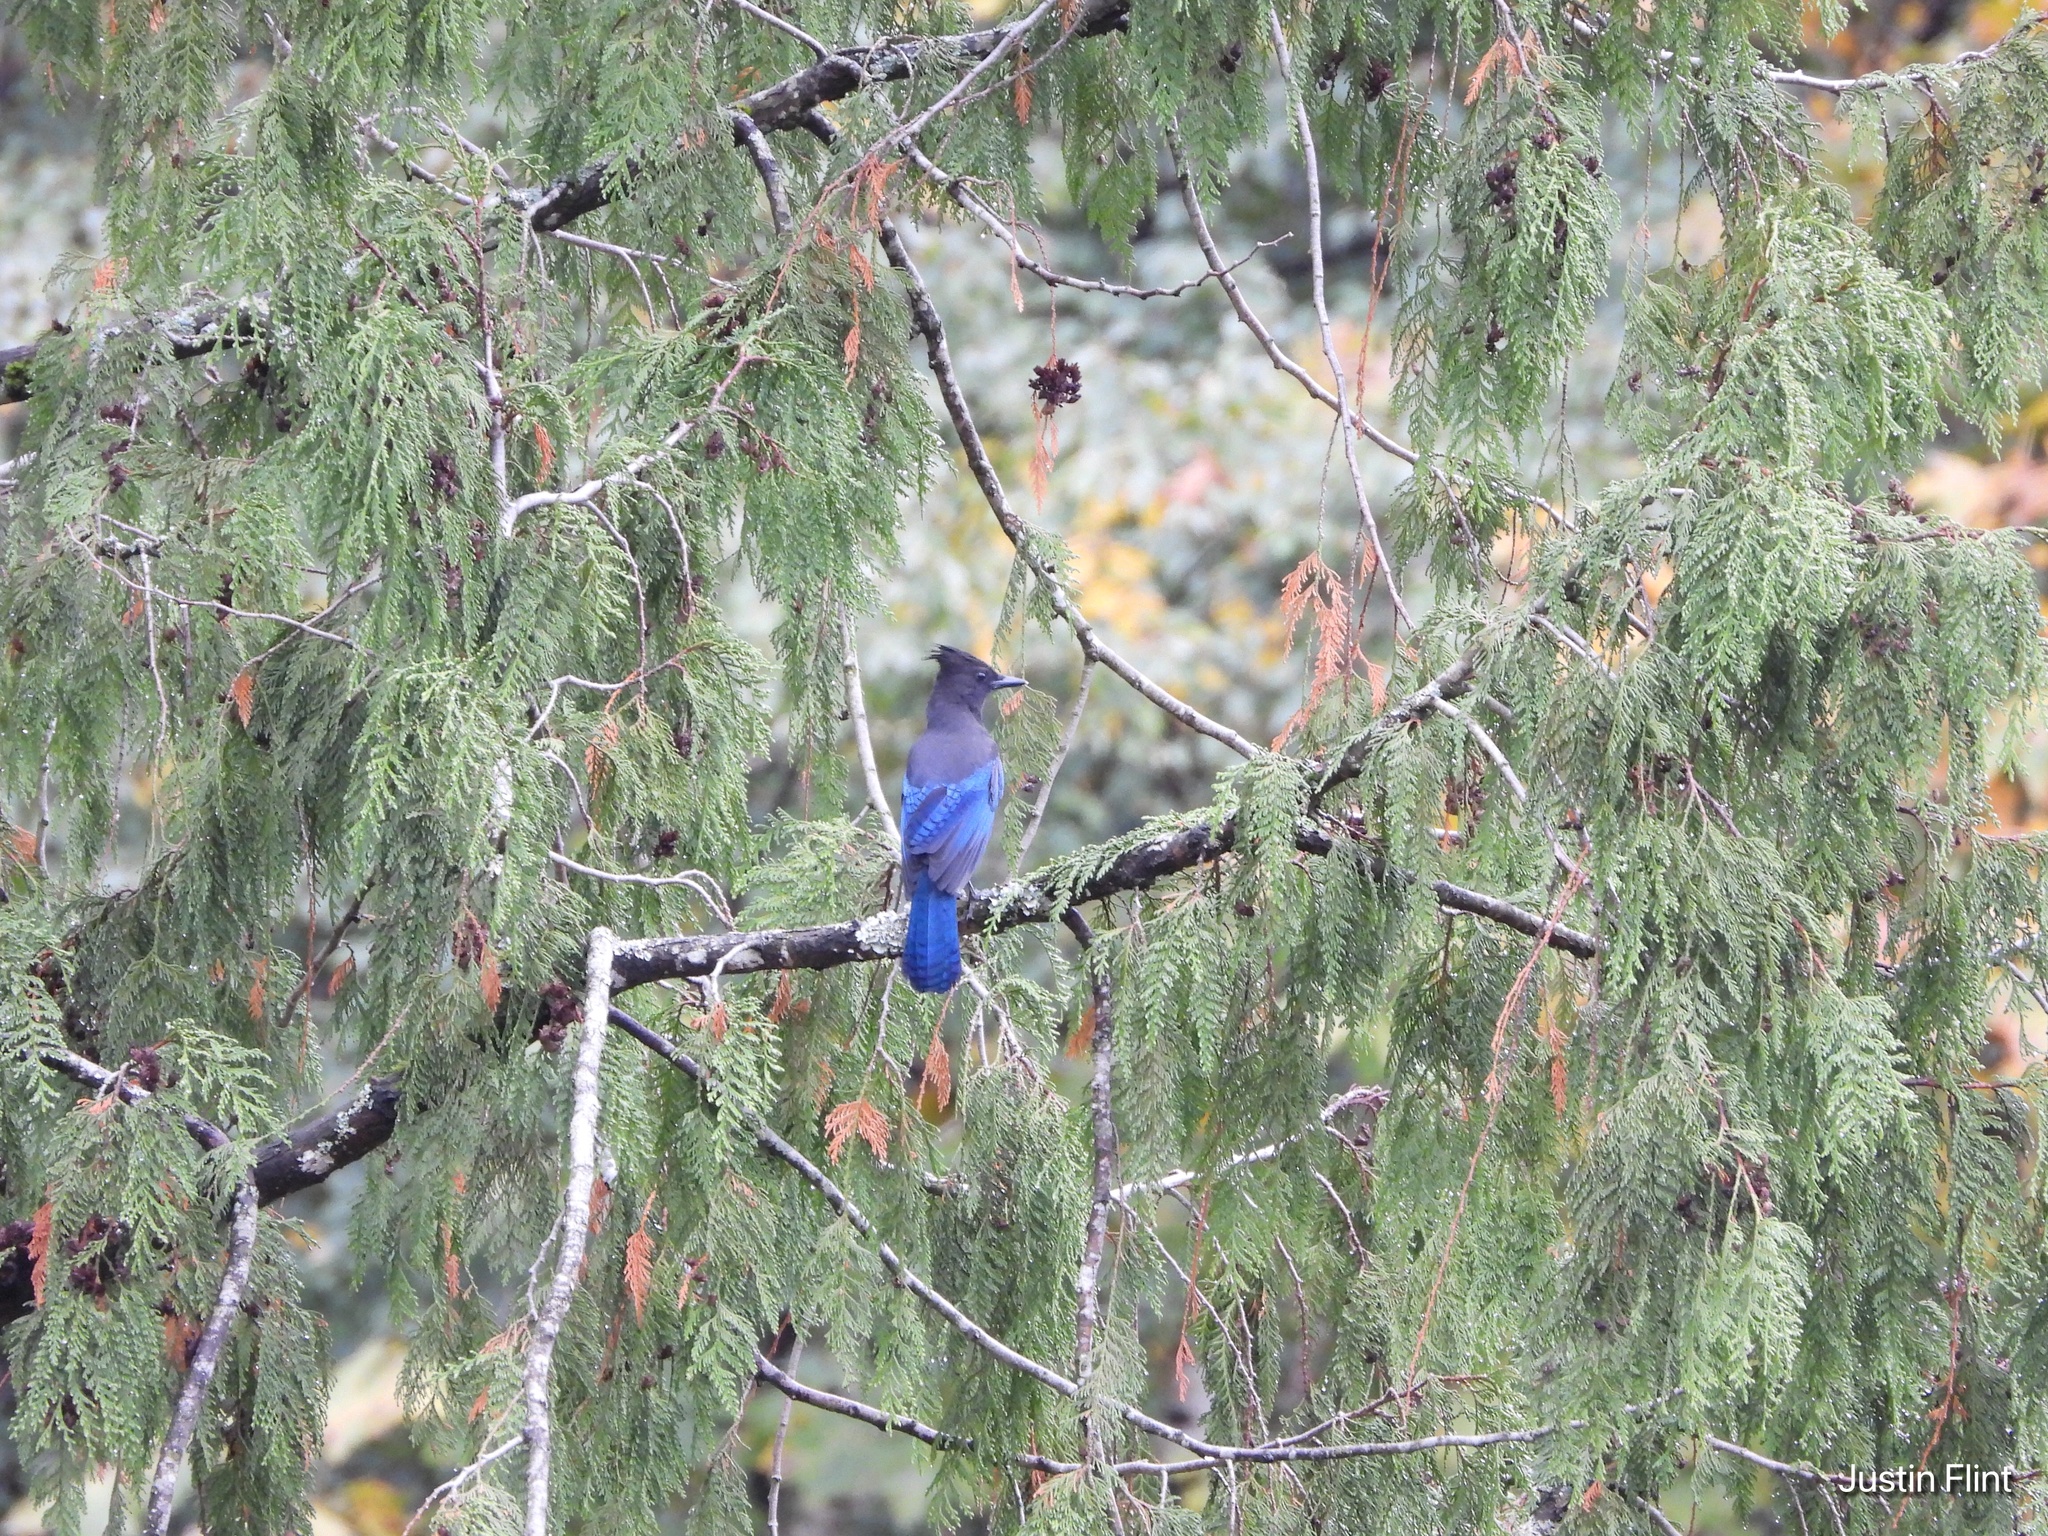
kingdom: Animalia
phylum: Chordata
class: Aves
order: Passeriformes
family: Corvidae
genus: Cyanocitta
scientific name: Cyanocitta stelleri
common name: Steller's jay
